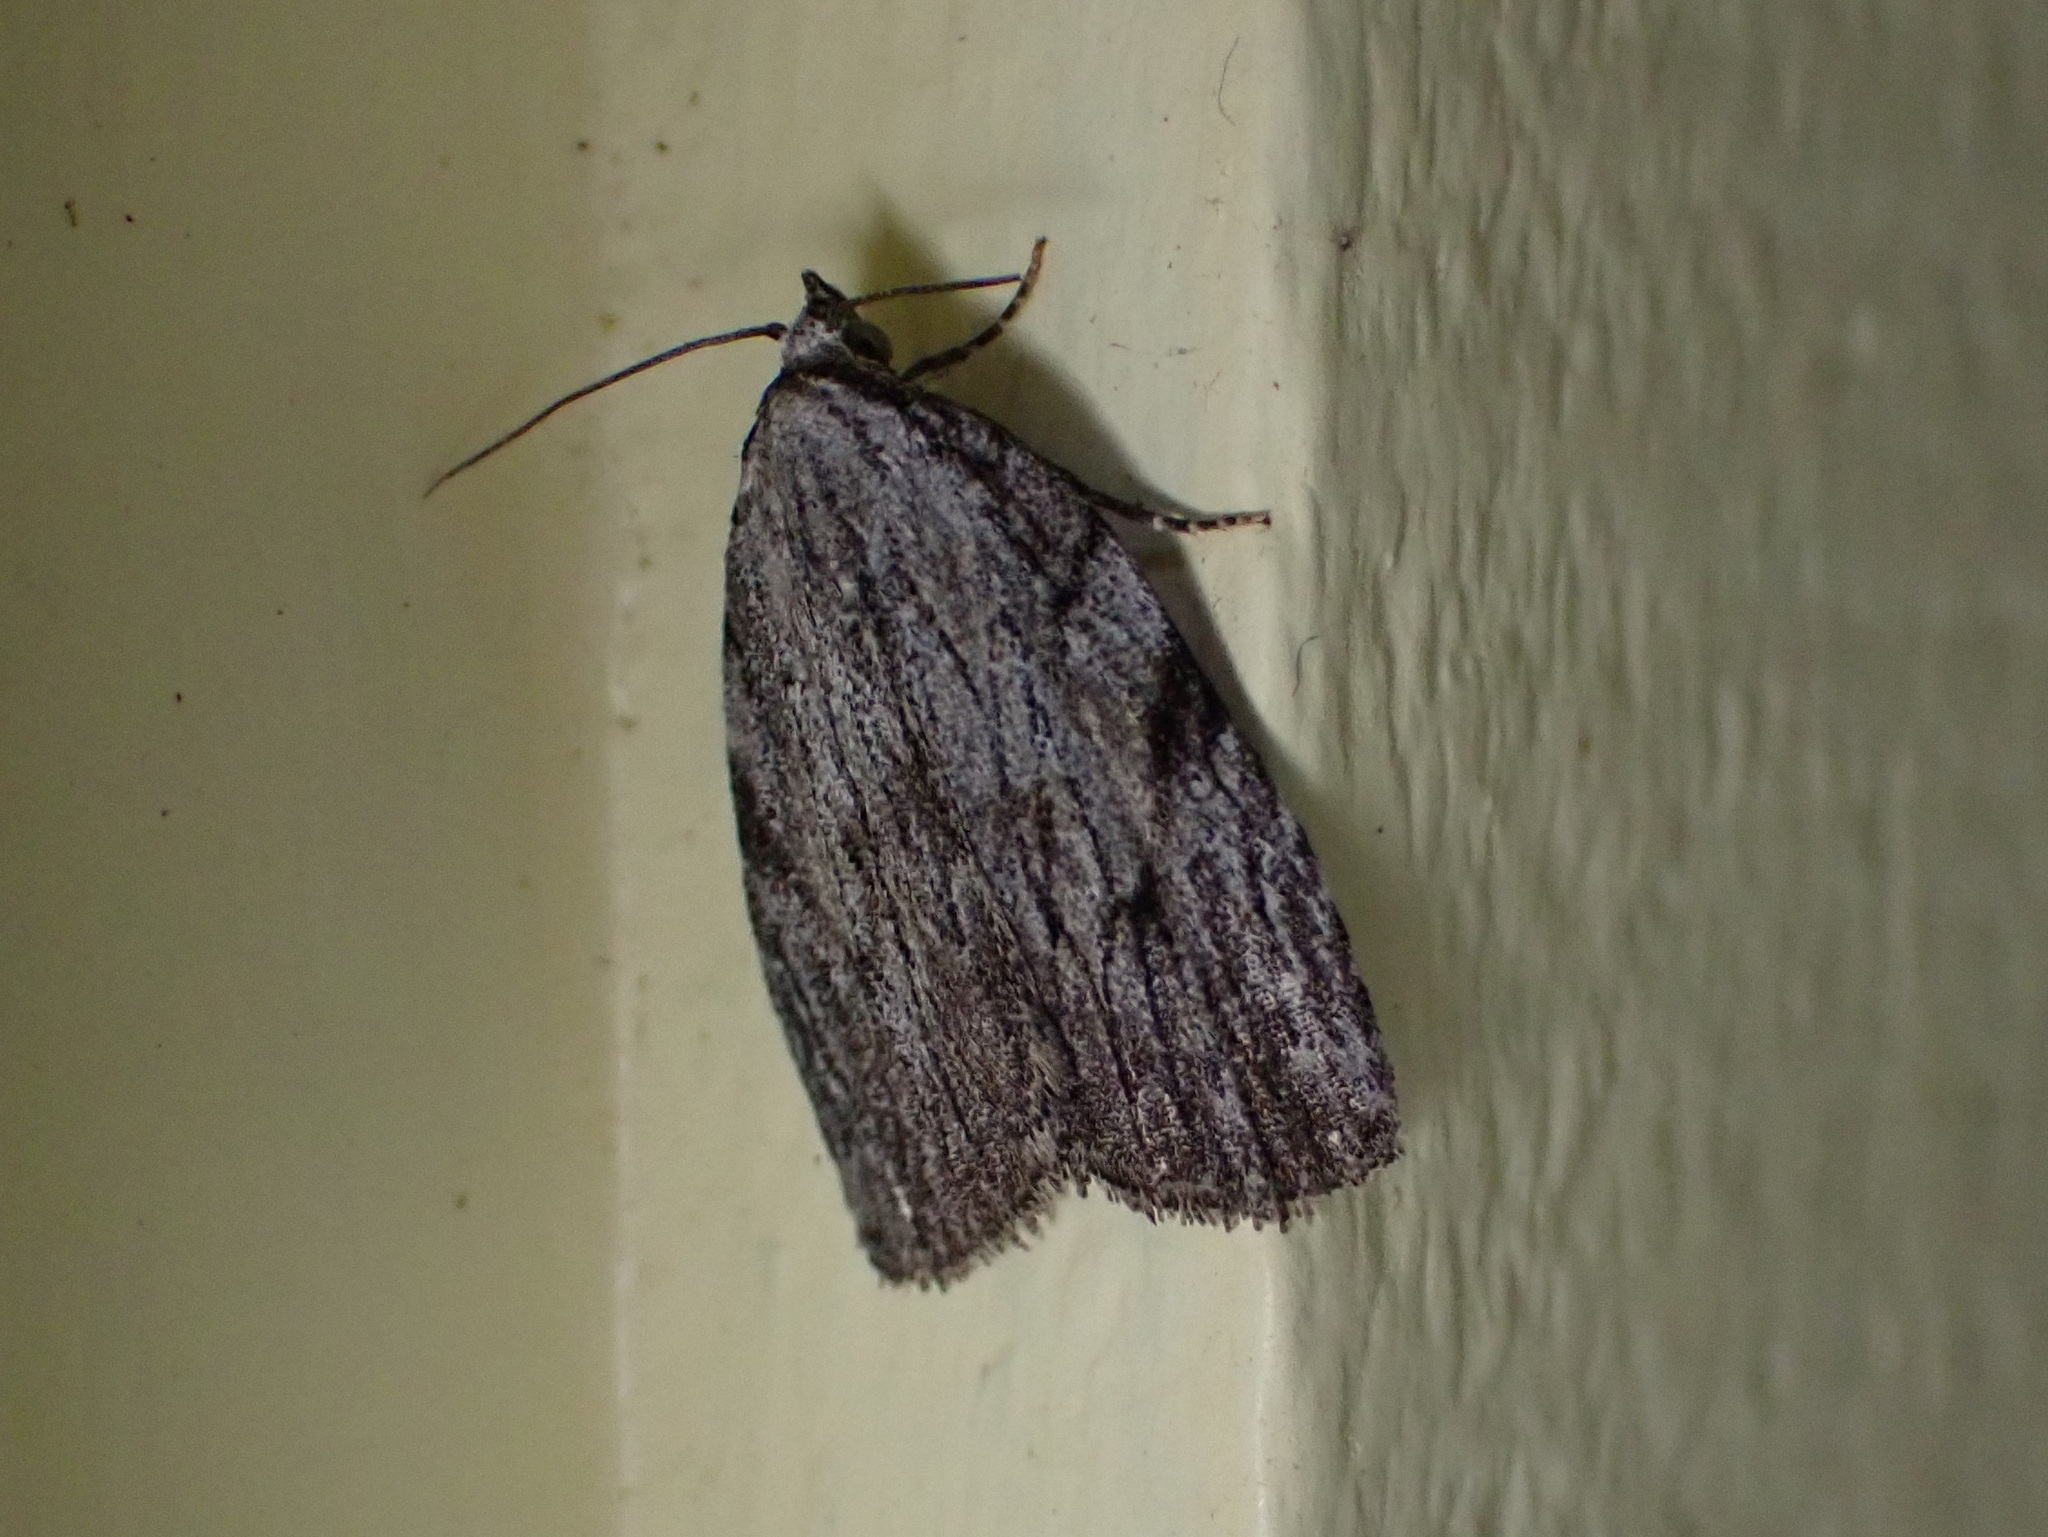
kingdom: Animalia
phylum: Arthropoda
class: Insecta
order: Lepidoptera
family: Noctuidae
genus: Balsa
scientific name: Balsa tristrigella
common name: Three-lined balsa moth
